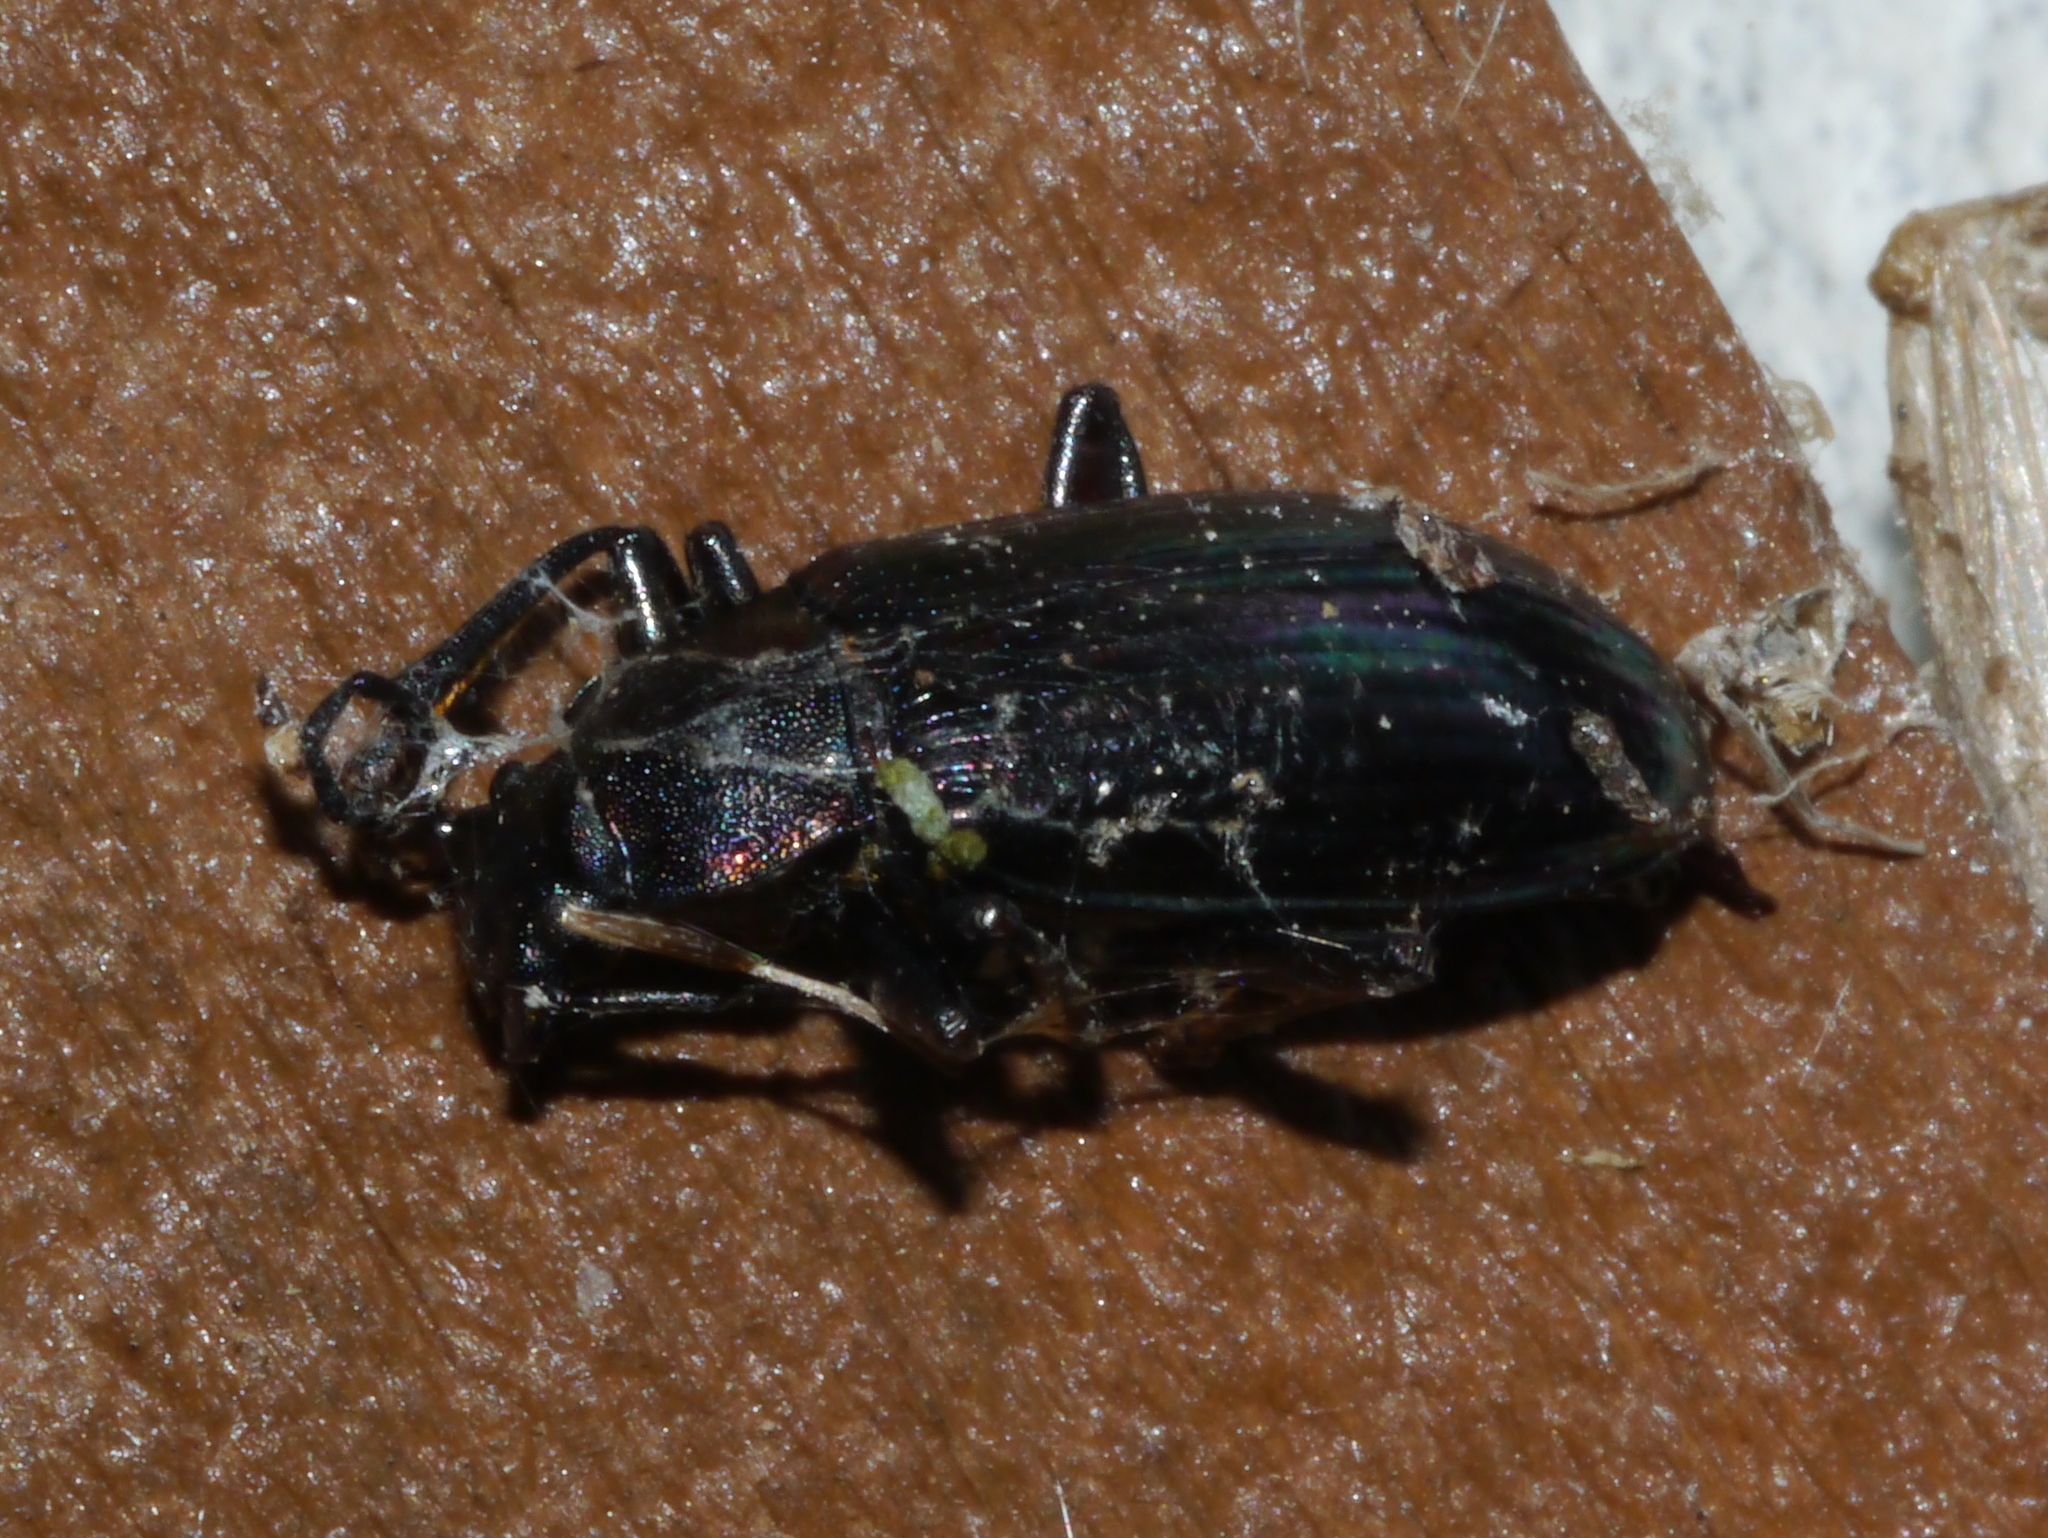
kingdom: Animalia
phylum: Arthropoda
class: Insecta
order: Coleoptera
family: Tenebrionidae
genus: Tarpela
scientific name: Tarpela micans
